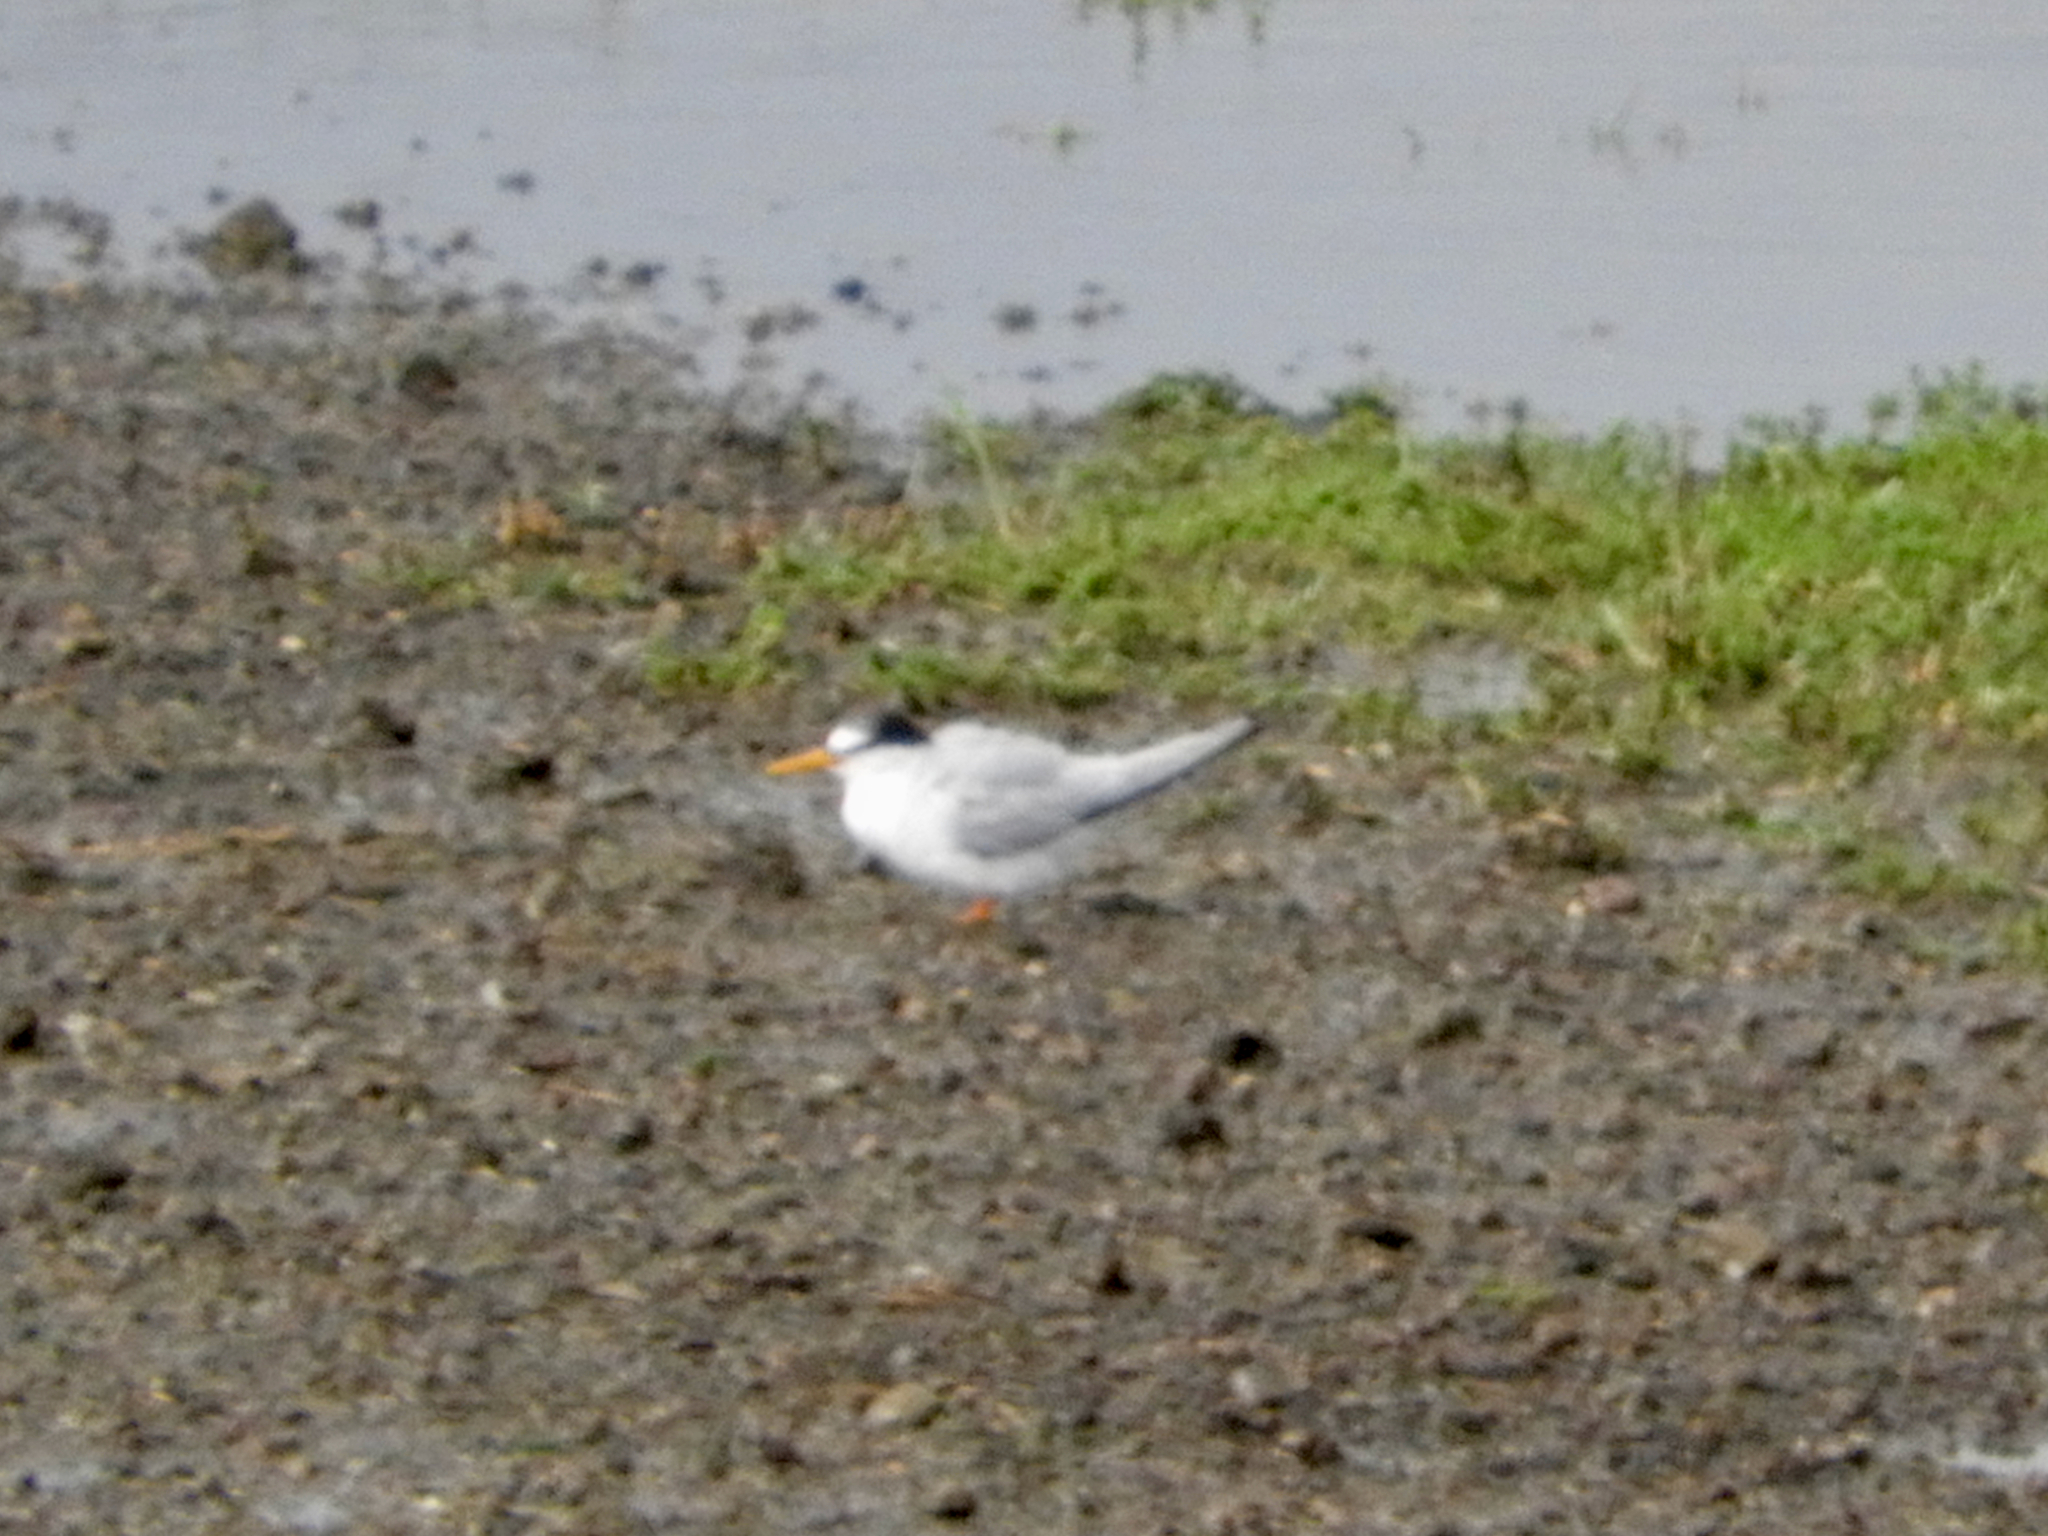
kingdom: Animalia
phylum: Chordata
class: Aves
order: Charadriiformes
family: Laridae
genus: Sternula
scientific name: Sternula albifrons
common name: Little tern
